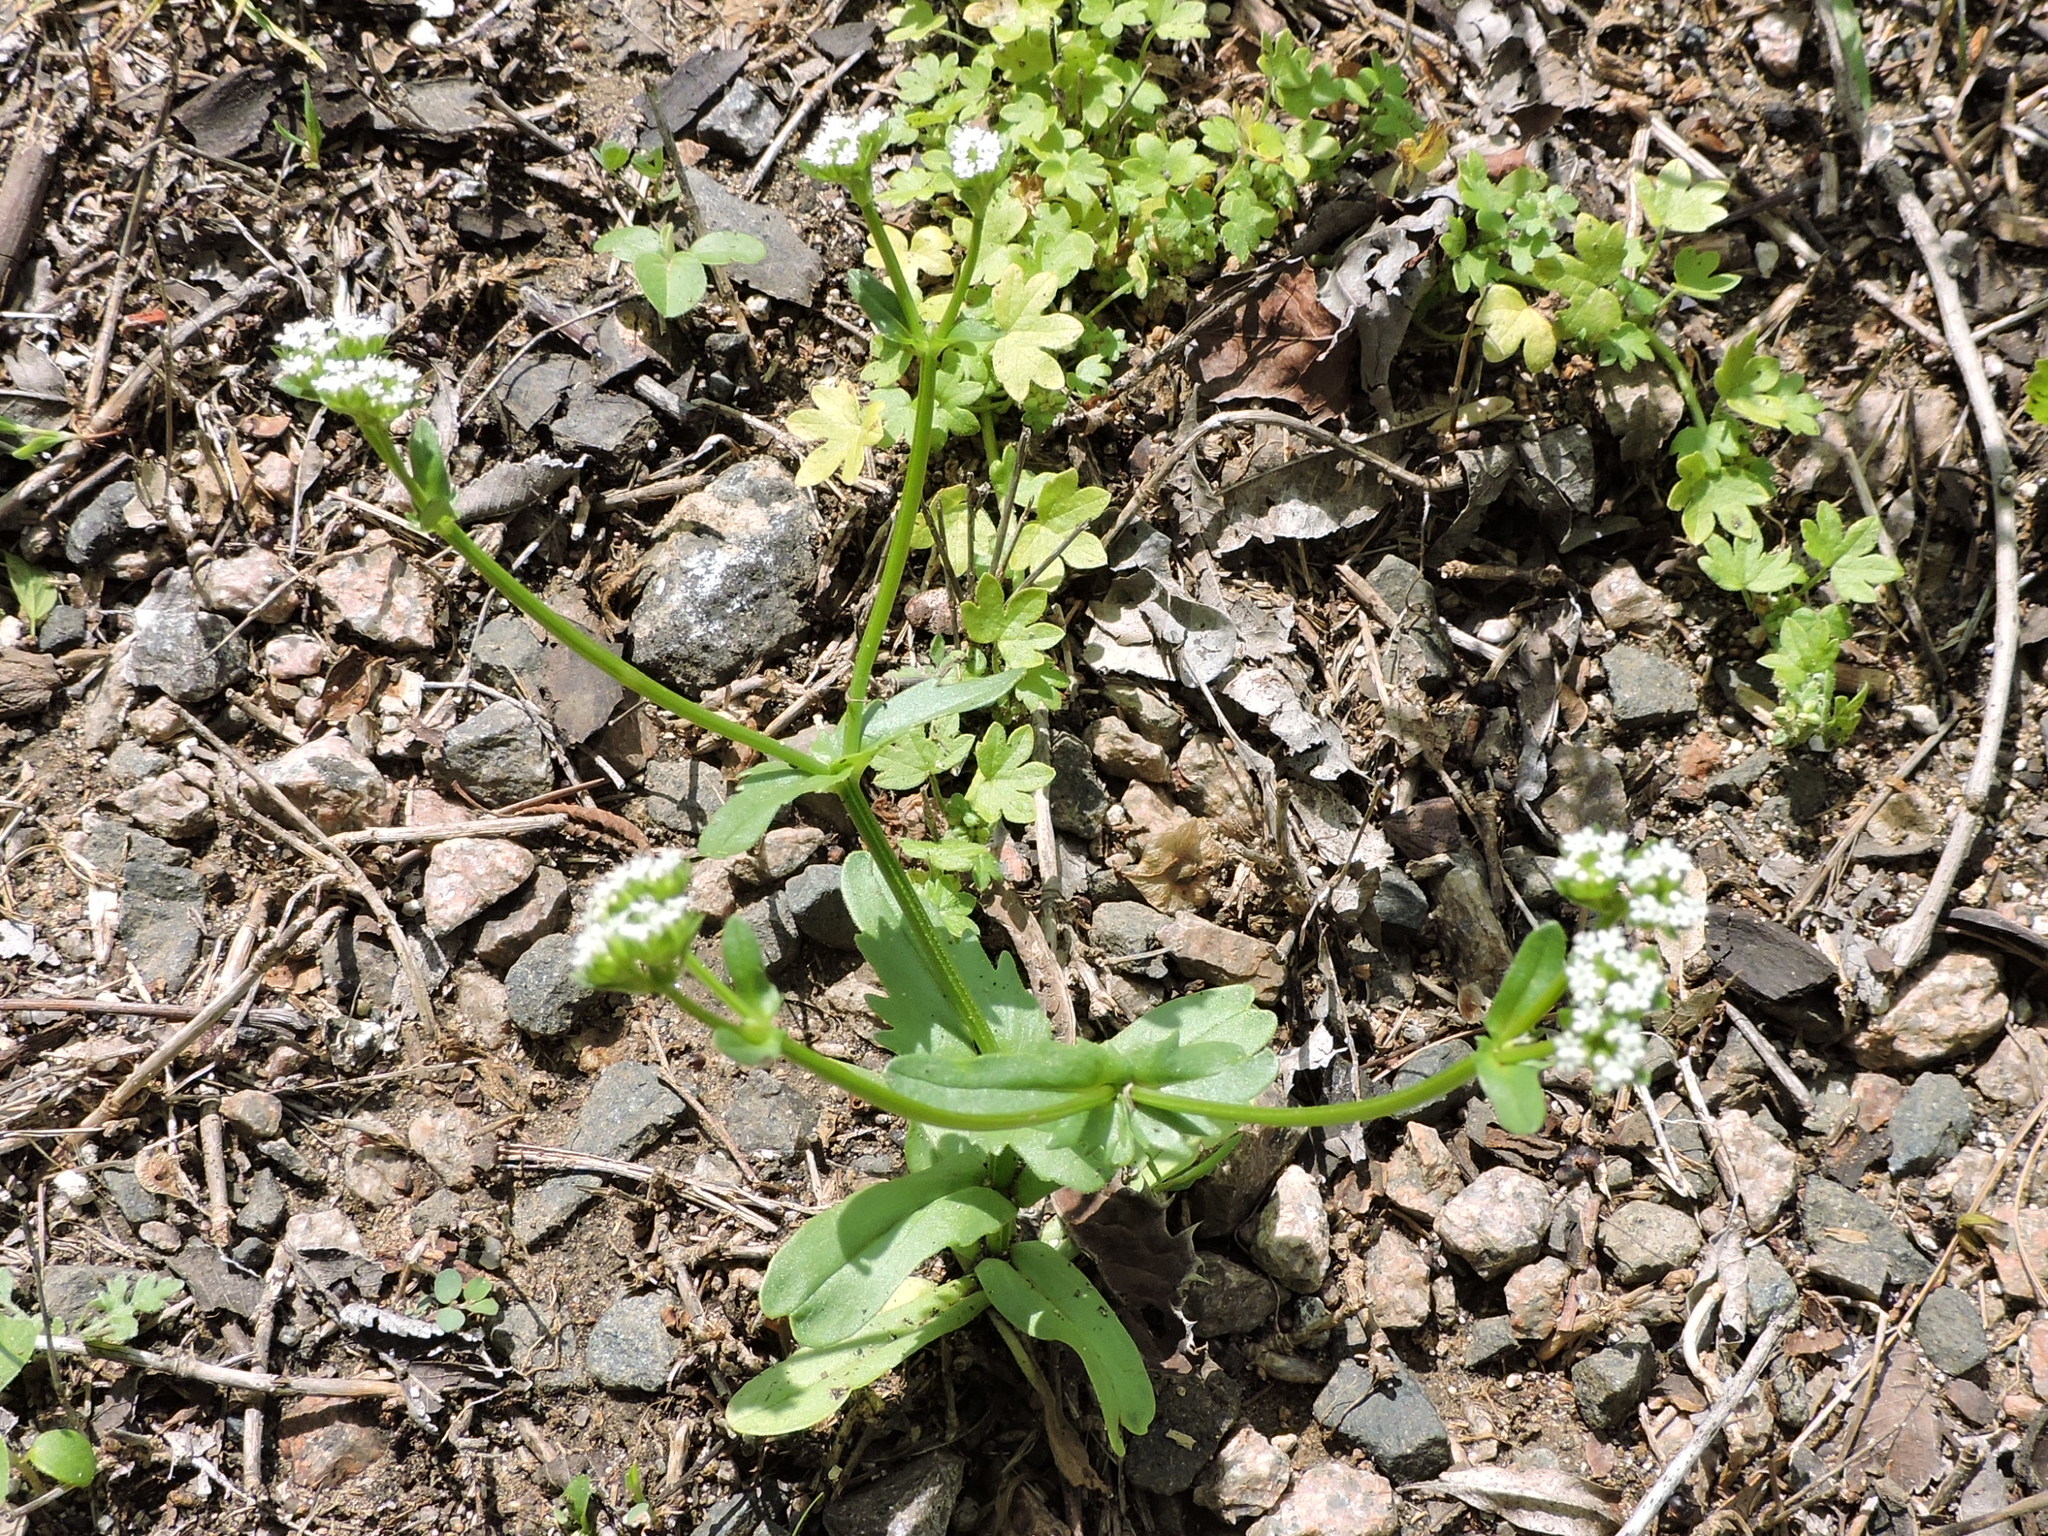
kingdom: Plantae
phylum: Tracheophyta
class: Magnoliopsida
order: Dipsacales
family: Caprifoliaceae
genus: Valerianella
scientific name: Valerianella radiata
